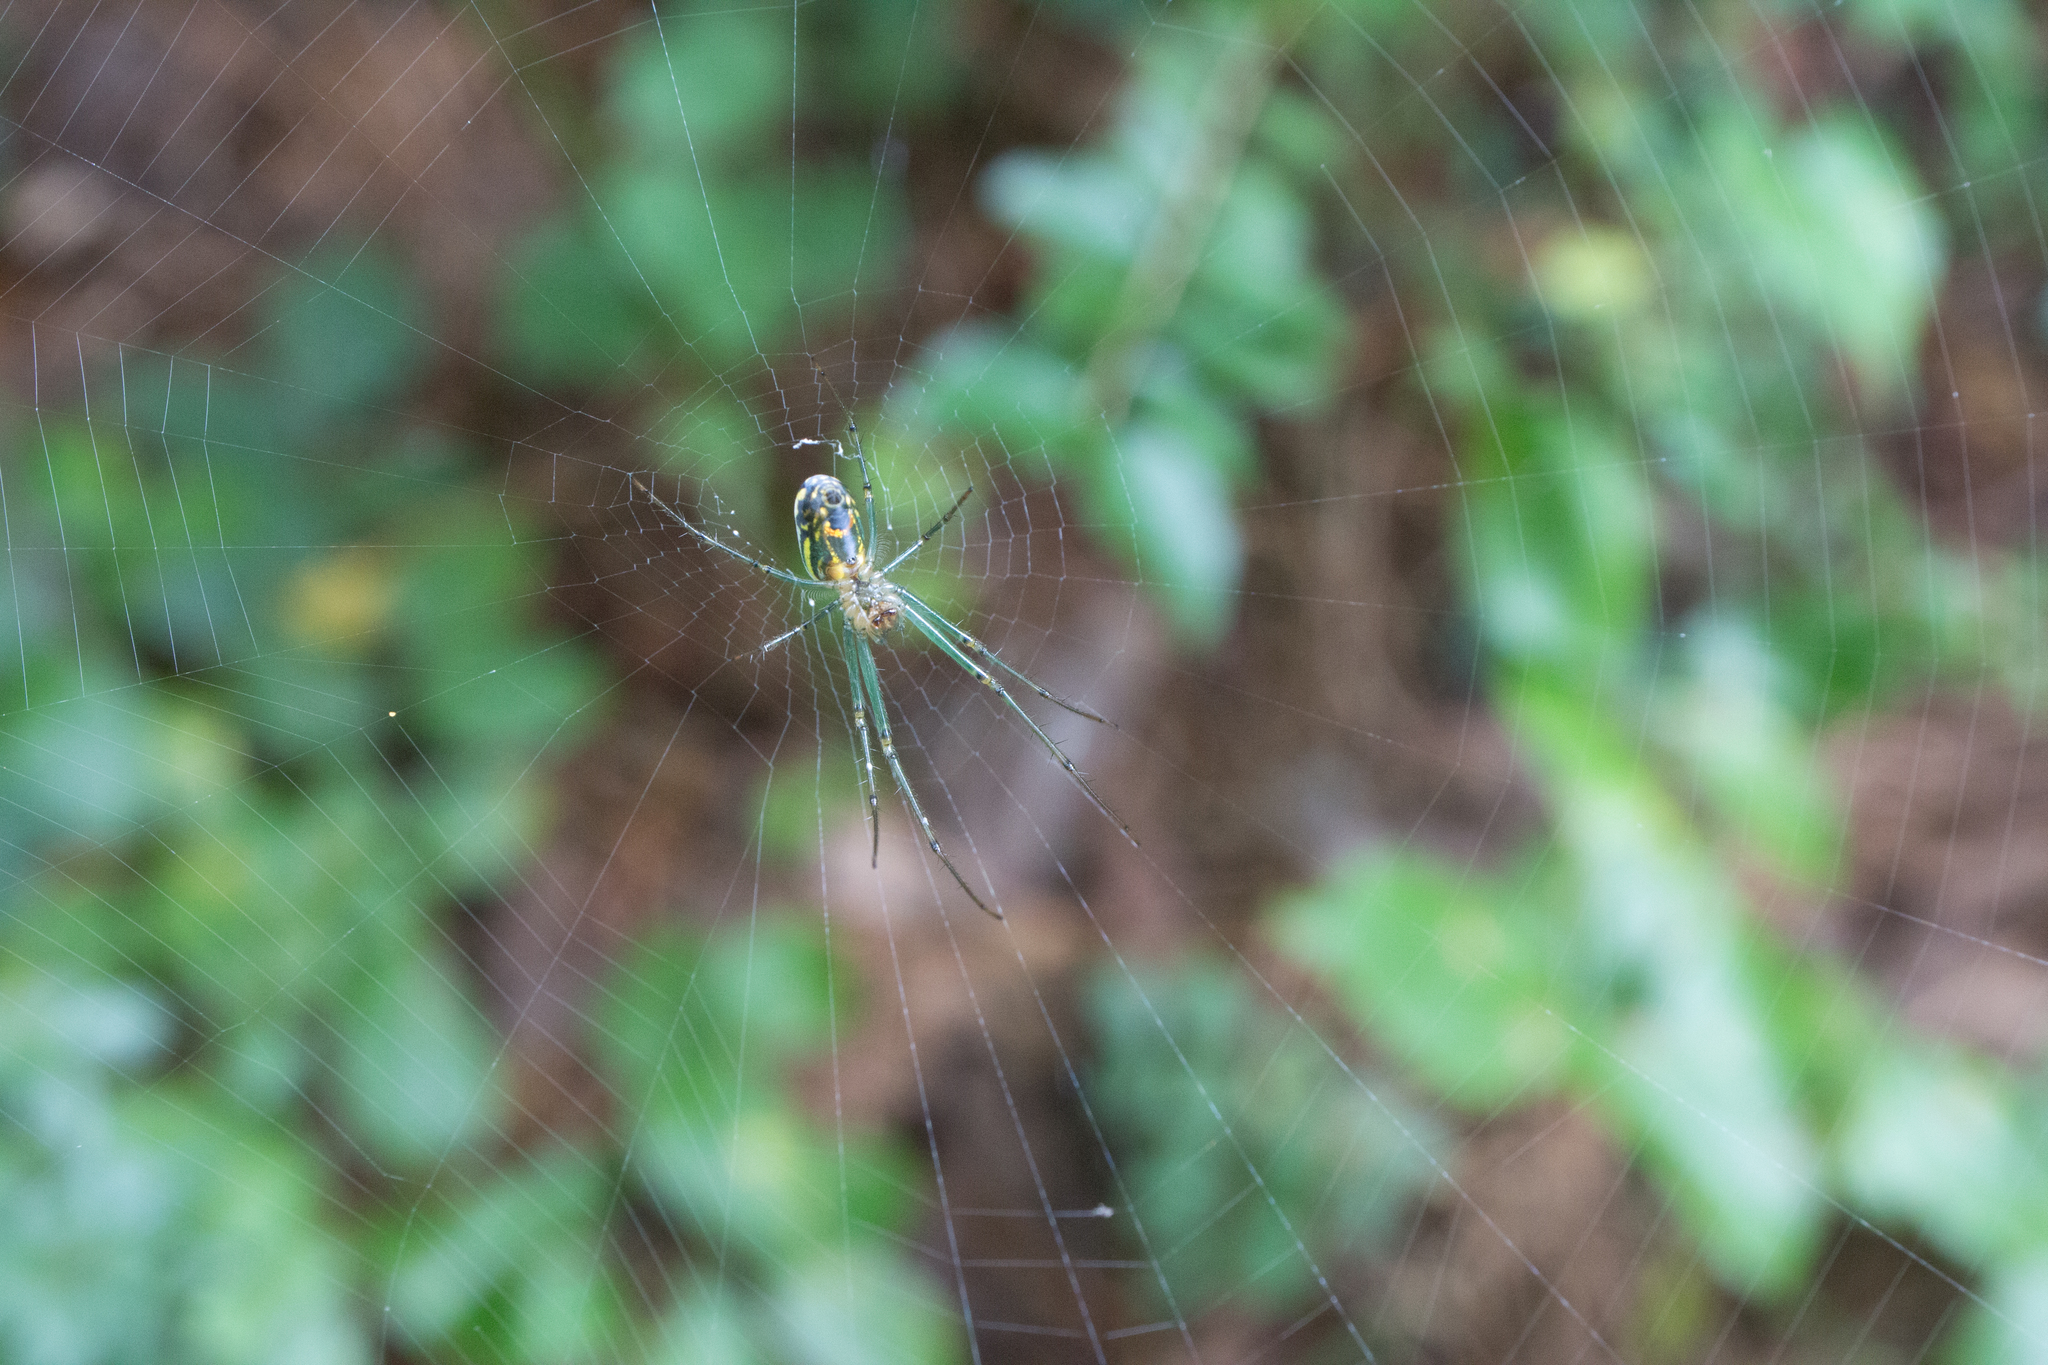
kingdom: Animalia
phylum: Arthropoda
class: Arachnida
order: Araneae
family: Tetragnathidae
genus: Leucauge
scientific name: Leucauge venusta
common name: Longjawed orb weavers
